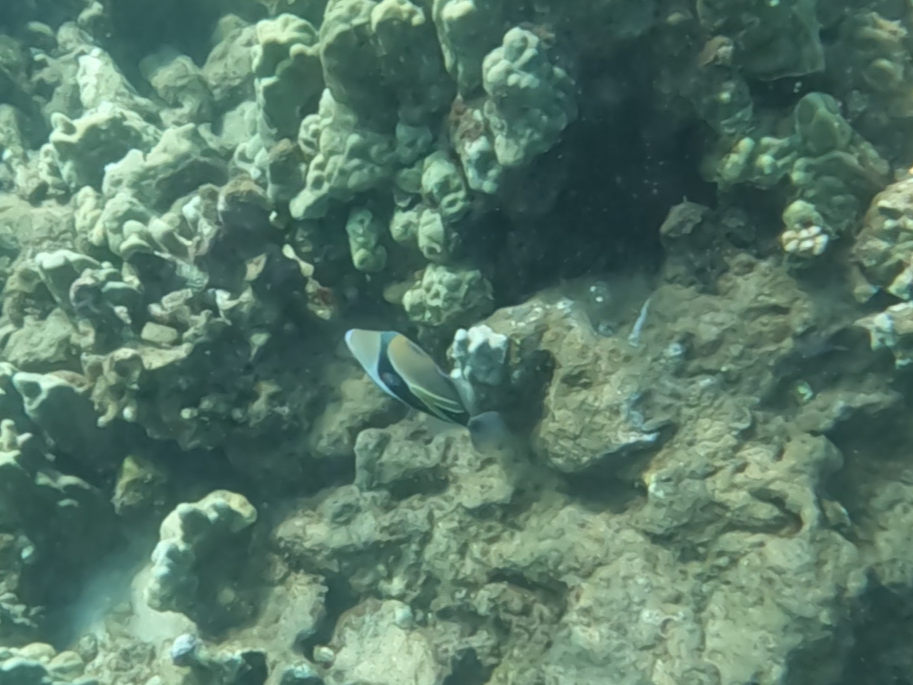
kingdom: Animalia
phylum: Chordata
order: Tetraodontiformes
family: Balistidae
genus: Rhinecanthus
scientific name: Rhinecanthus rectangulus
